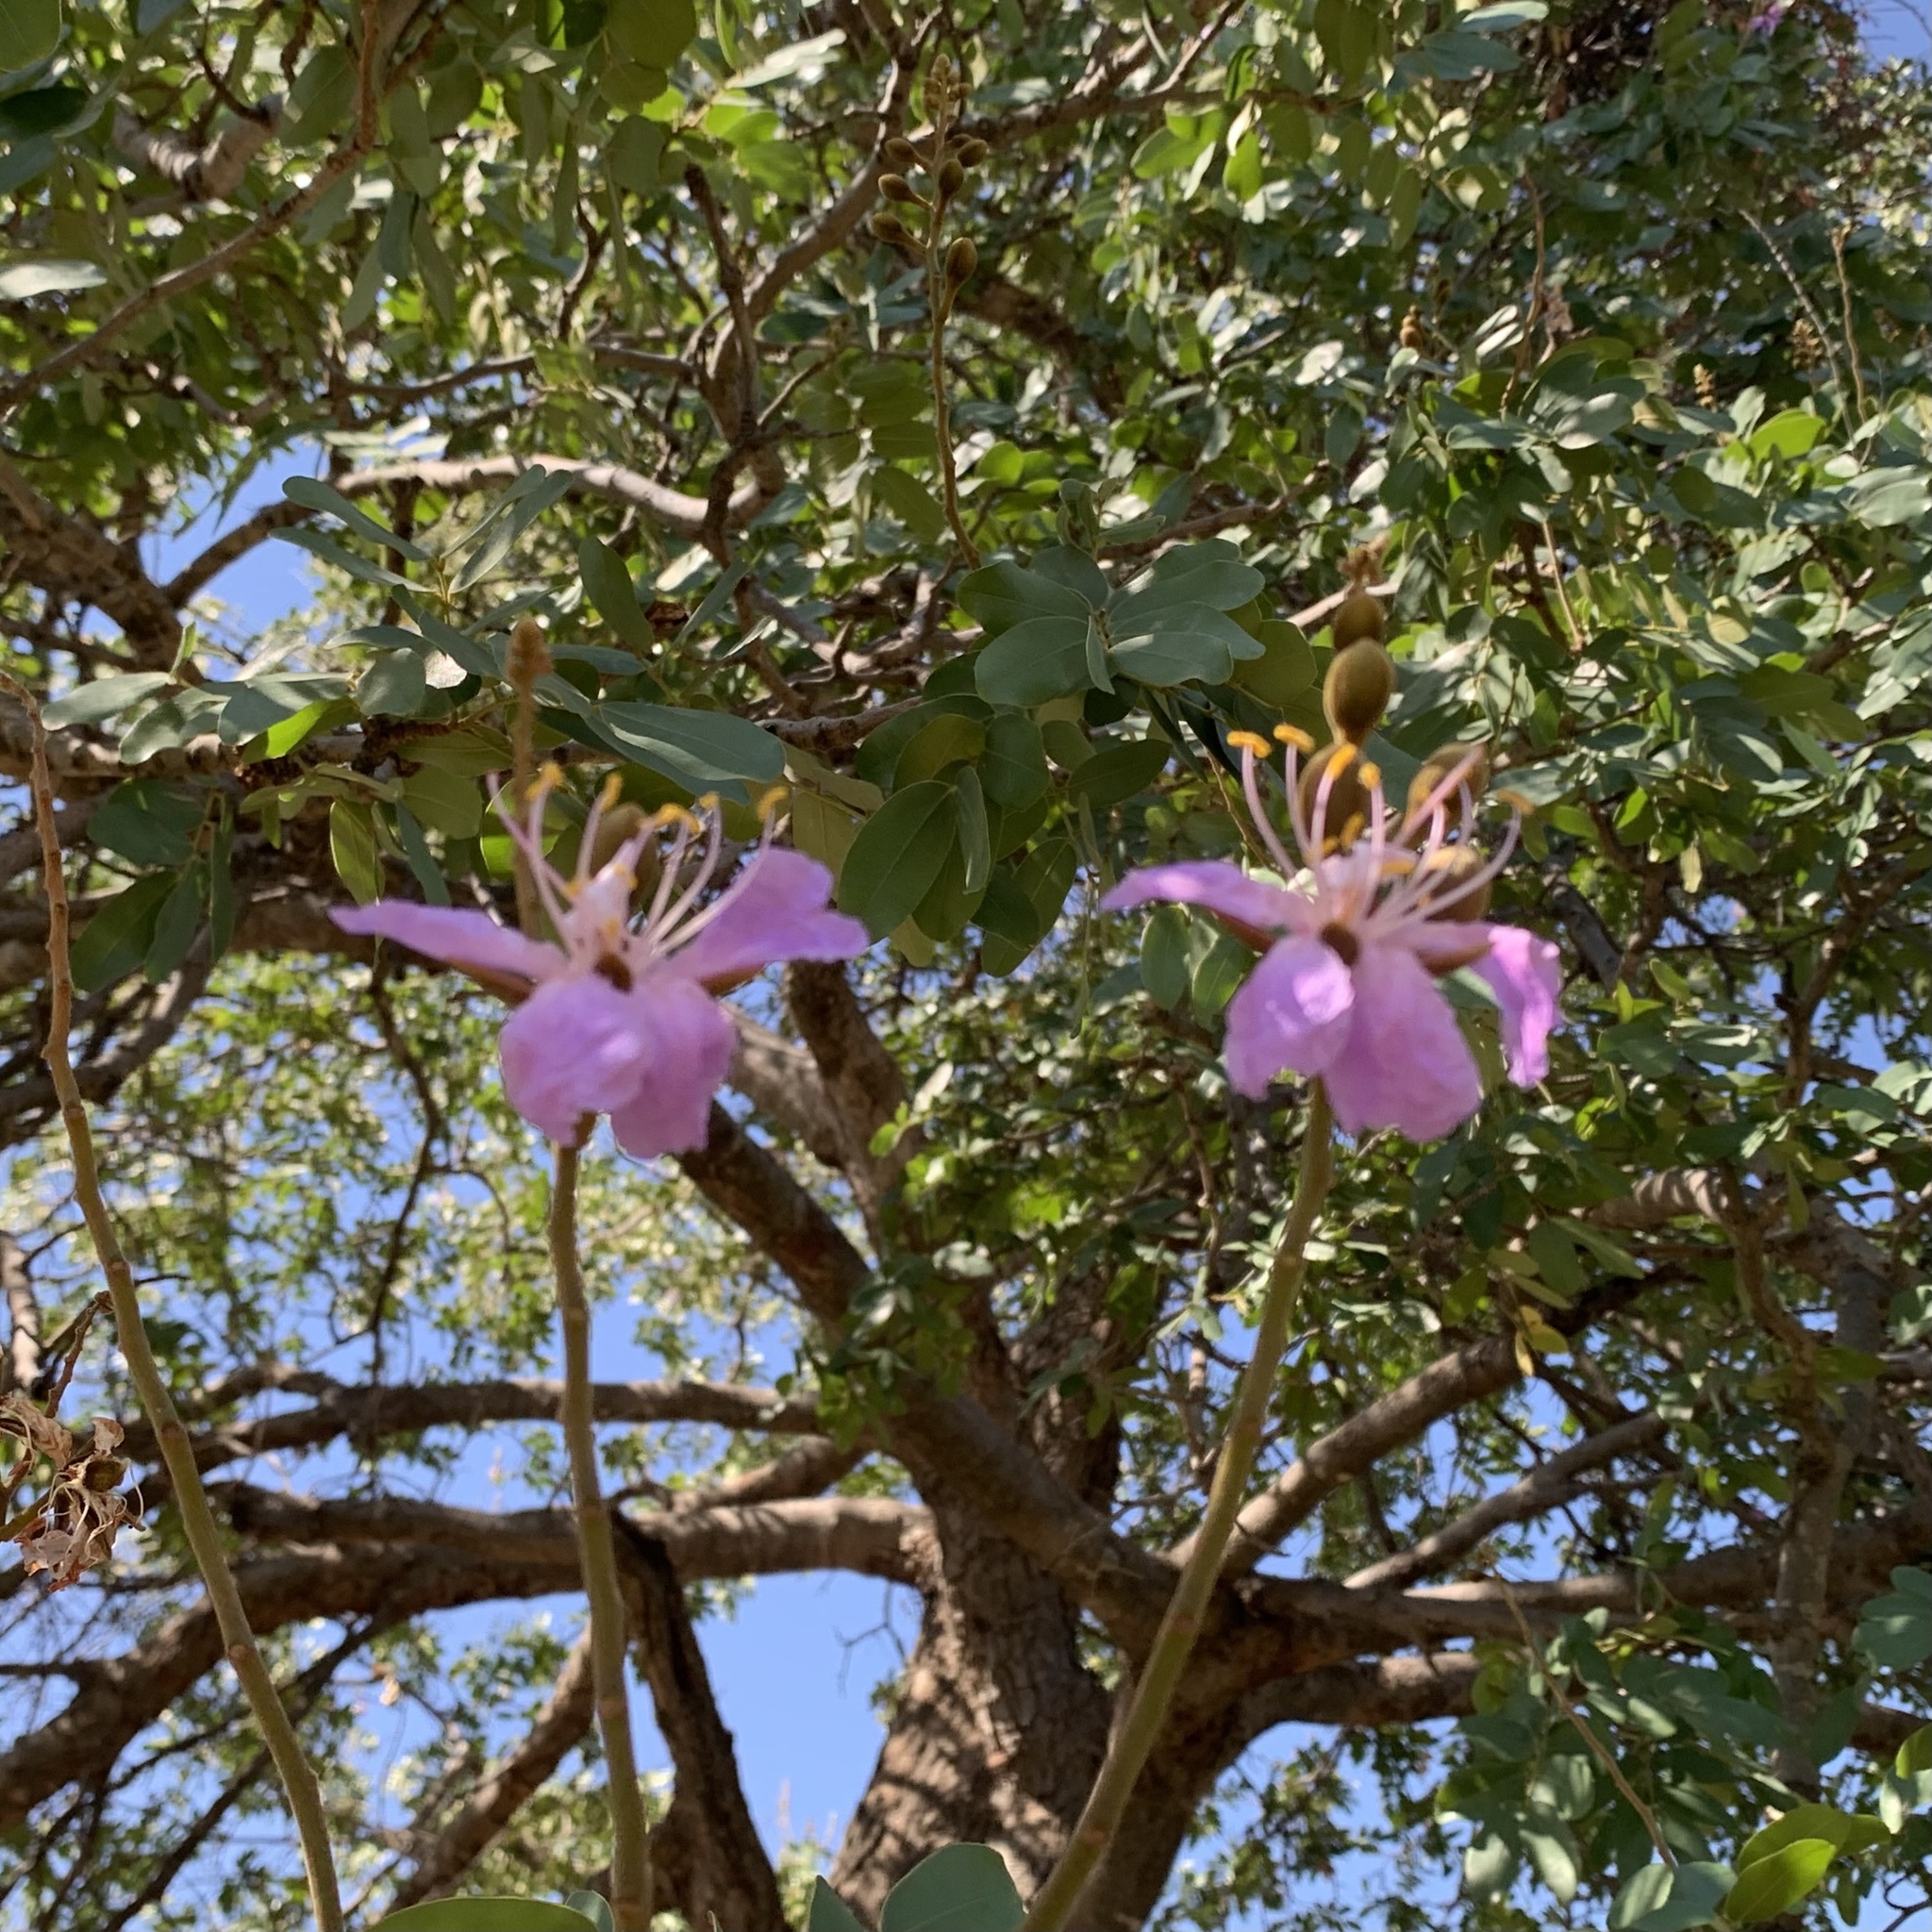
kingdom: Plantae
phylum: Tracheophyta
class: Magnoliopsida
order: Fabales
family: Fabaceae
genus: Baikiaea
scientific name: Baikiaea plurijuga
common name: Rhodesian-teak
